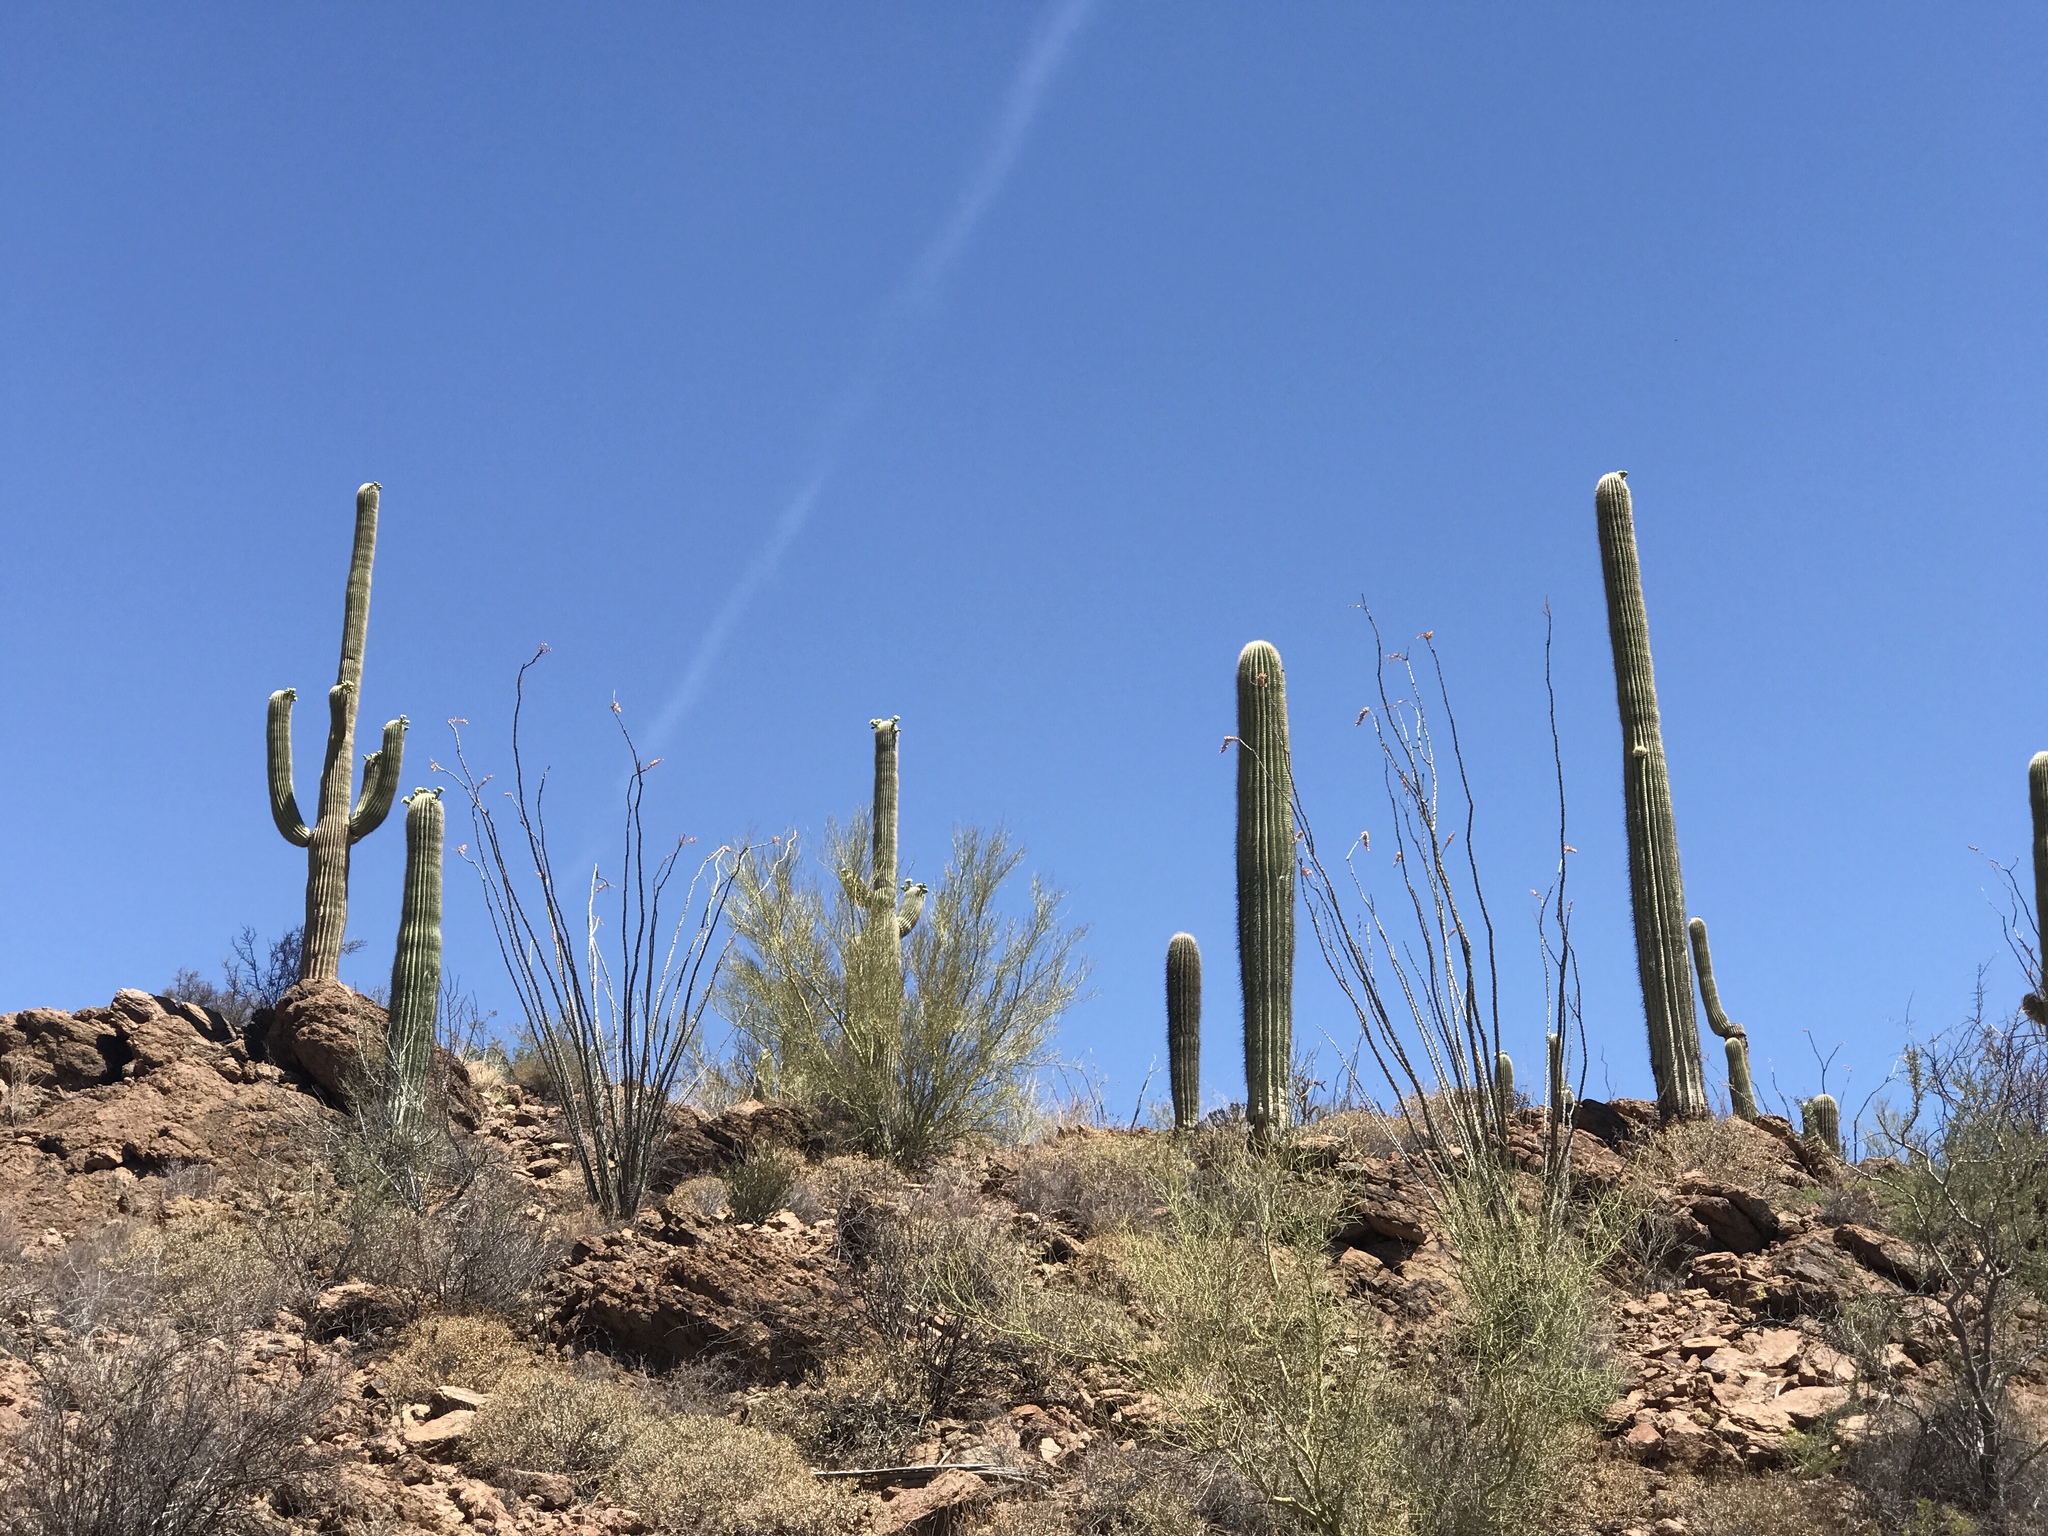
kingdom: Plantae
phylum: Tracheophyta
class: Magnoliopsida
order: Caryophyllales
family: Cactaceae
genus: Carnegiea
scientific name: Carnegiea gigantea
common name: Saguaro
